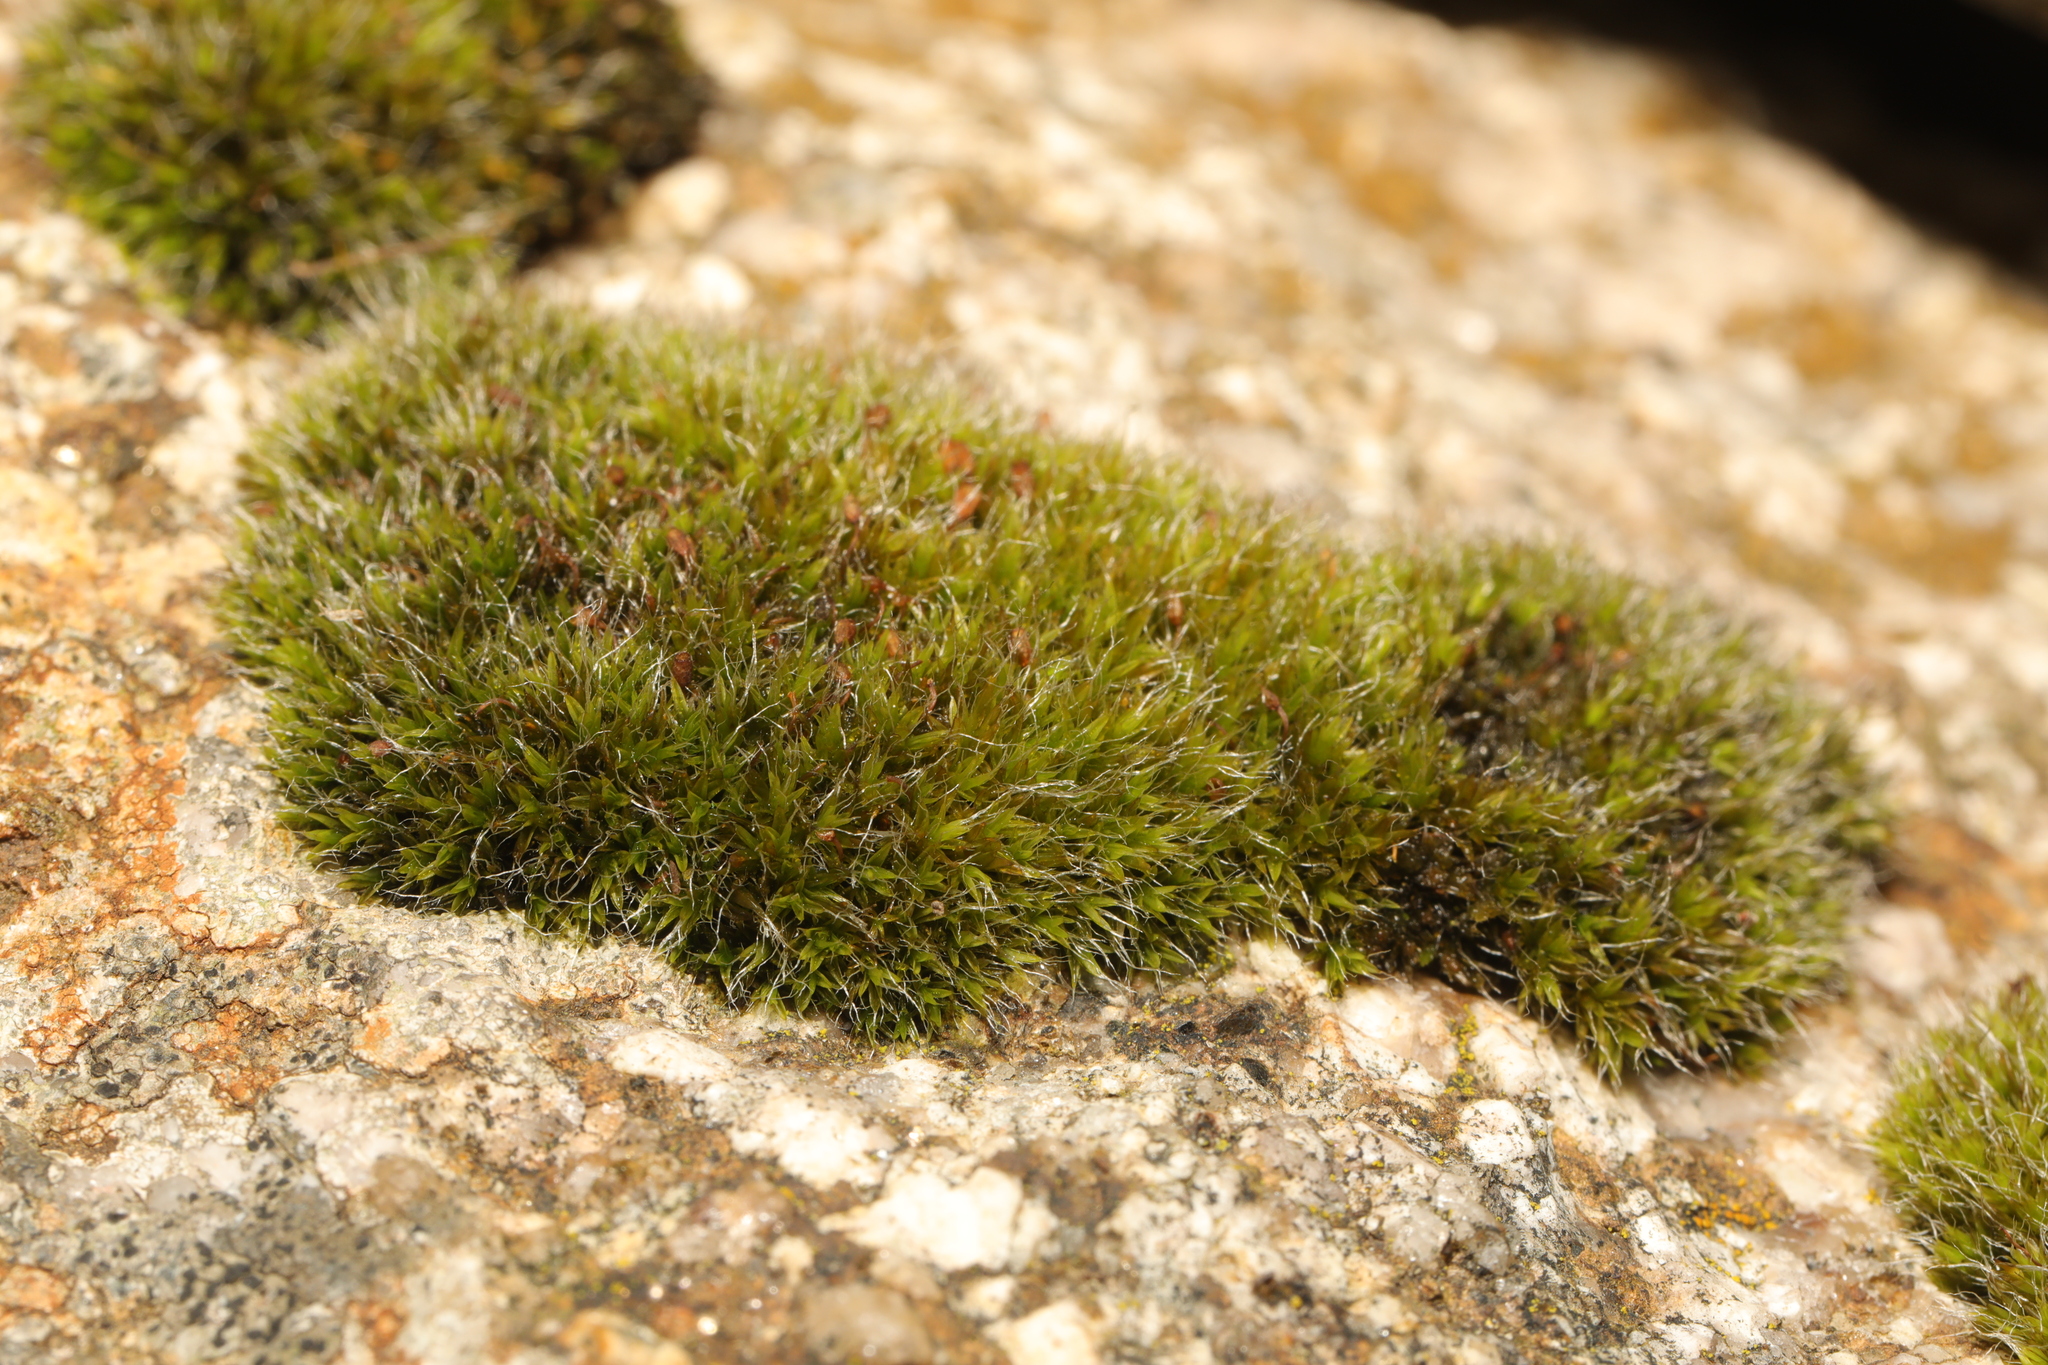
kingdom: Plantae
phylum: Bryophyta
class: Bryopsida
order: Grimmiales
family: Grimmiaceae
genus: Grimmia
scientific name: Grimmia pulvinata
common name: Grey-cushioned grimmia
